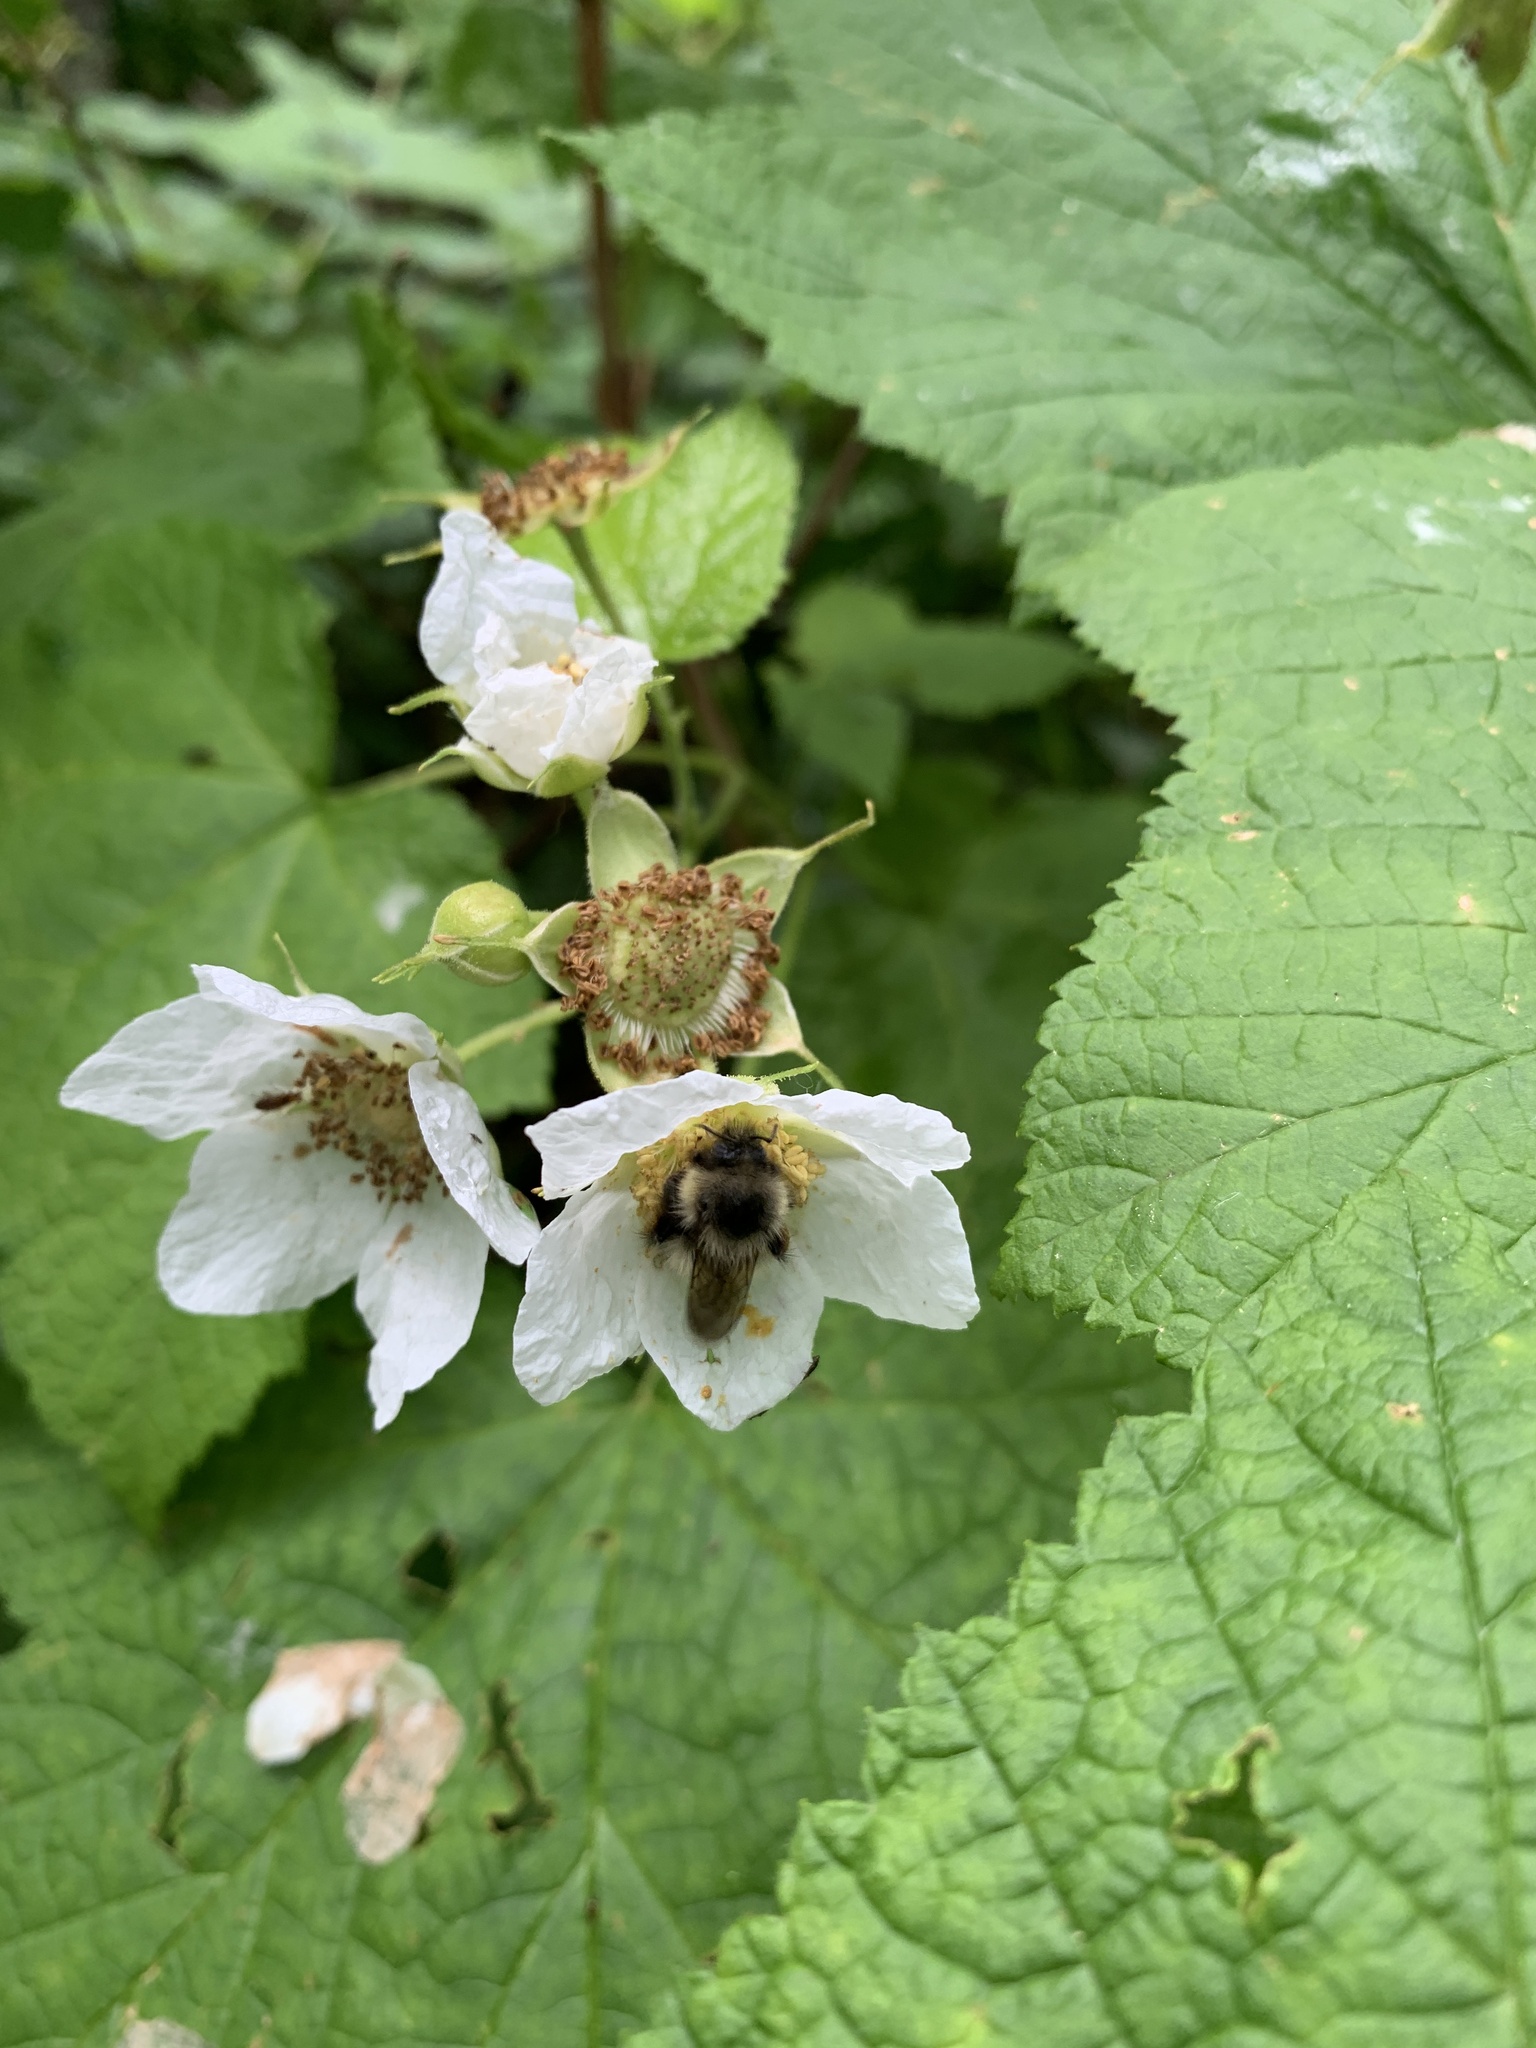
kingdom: Animalia
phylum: Arthropoda
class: Insecta
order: Hymenoptera
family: Apidae
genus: Bombus
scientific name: Bombus mixtus
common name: Fuzzy-horned bumble bee
